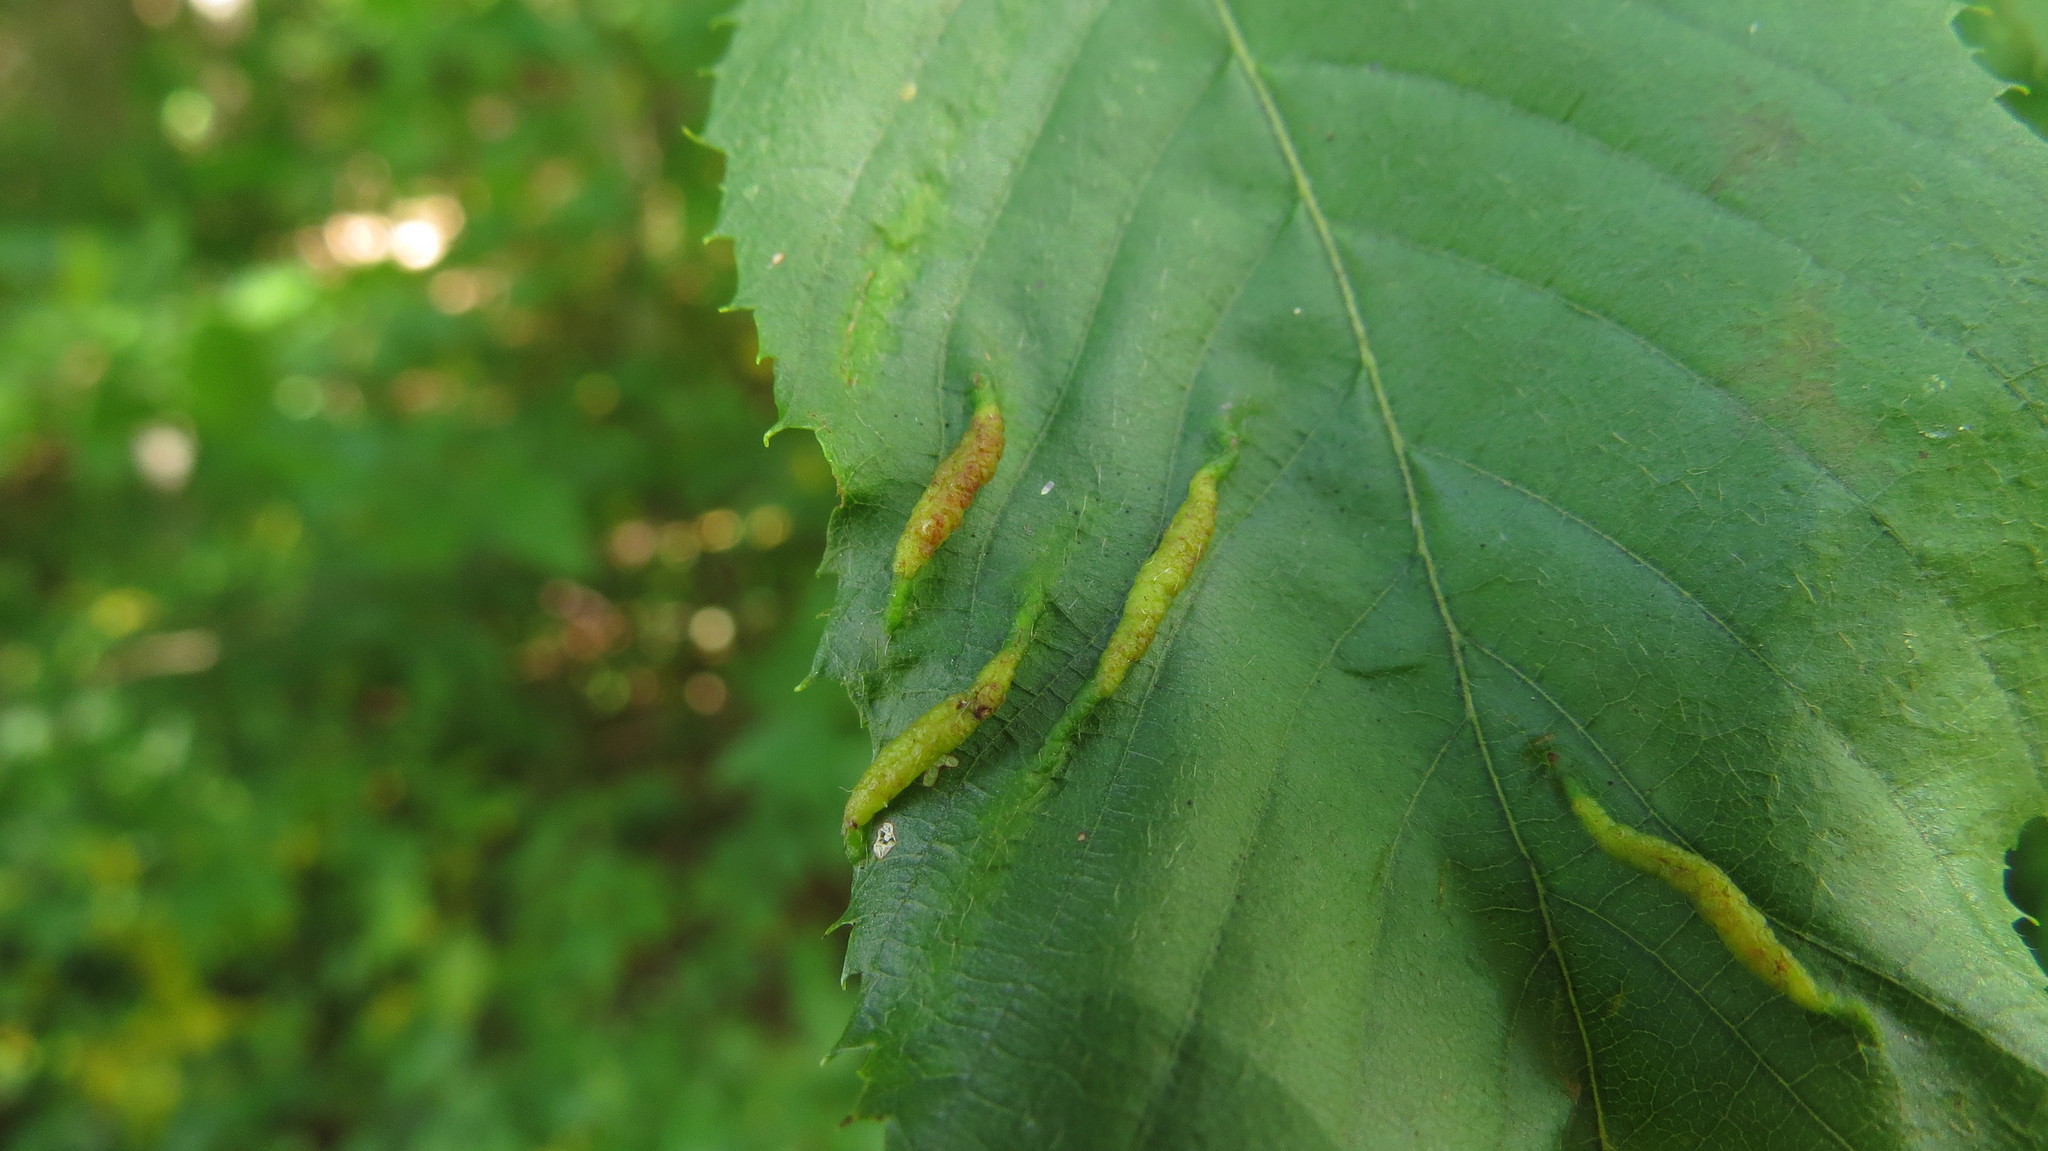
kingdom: Animalia
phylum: Arthropoda
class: Insecta
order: Diptera
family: Cecidomyiidae
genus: Dasineura
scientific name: Dasineura pudibunda
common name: Hornbeam leaf gall midge
